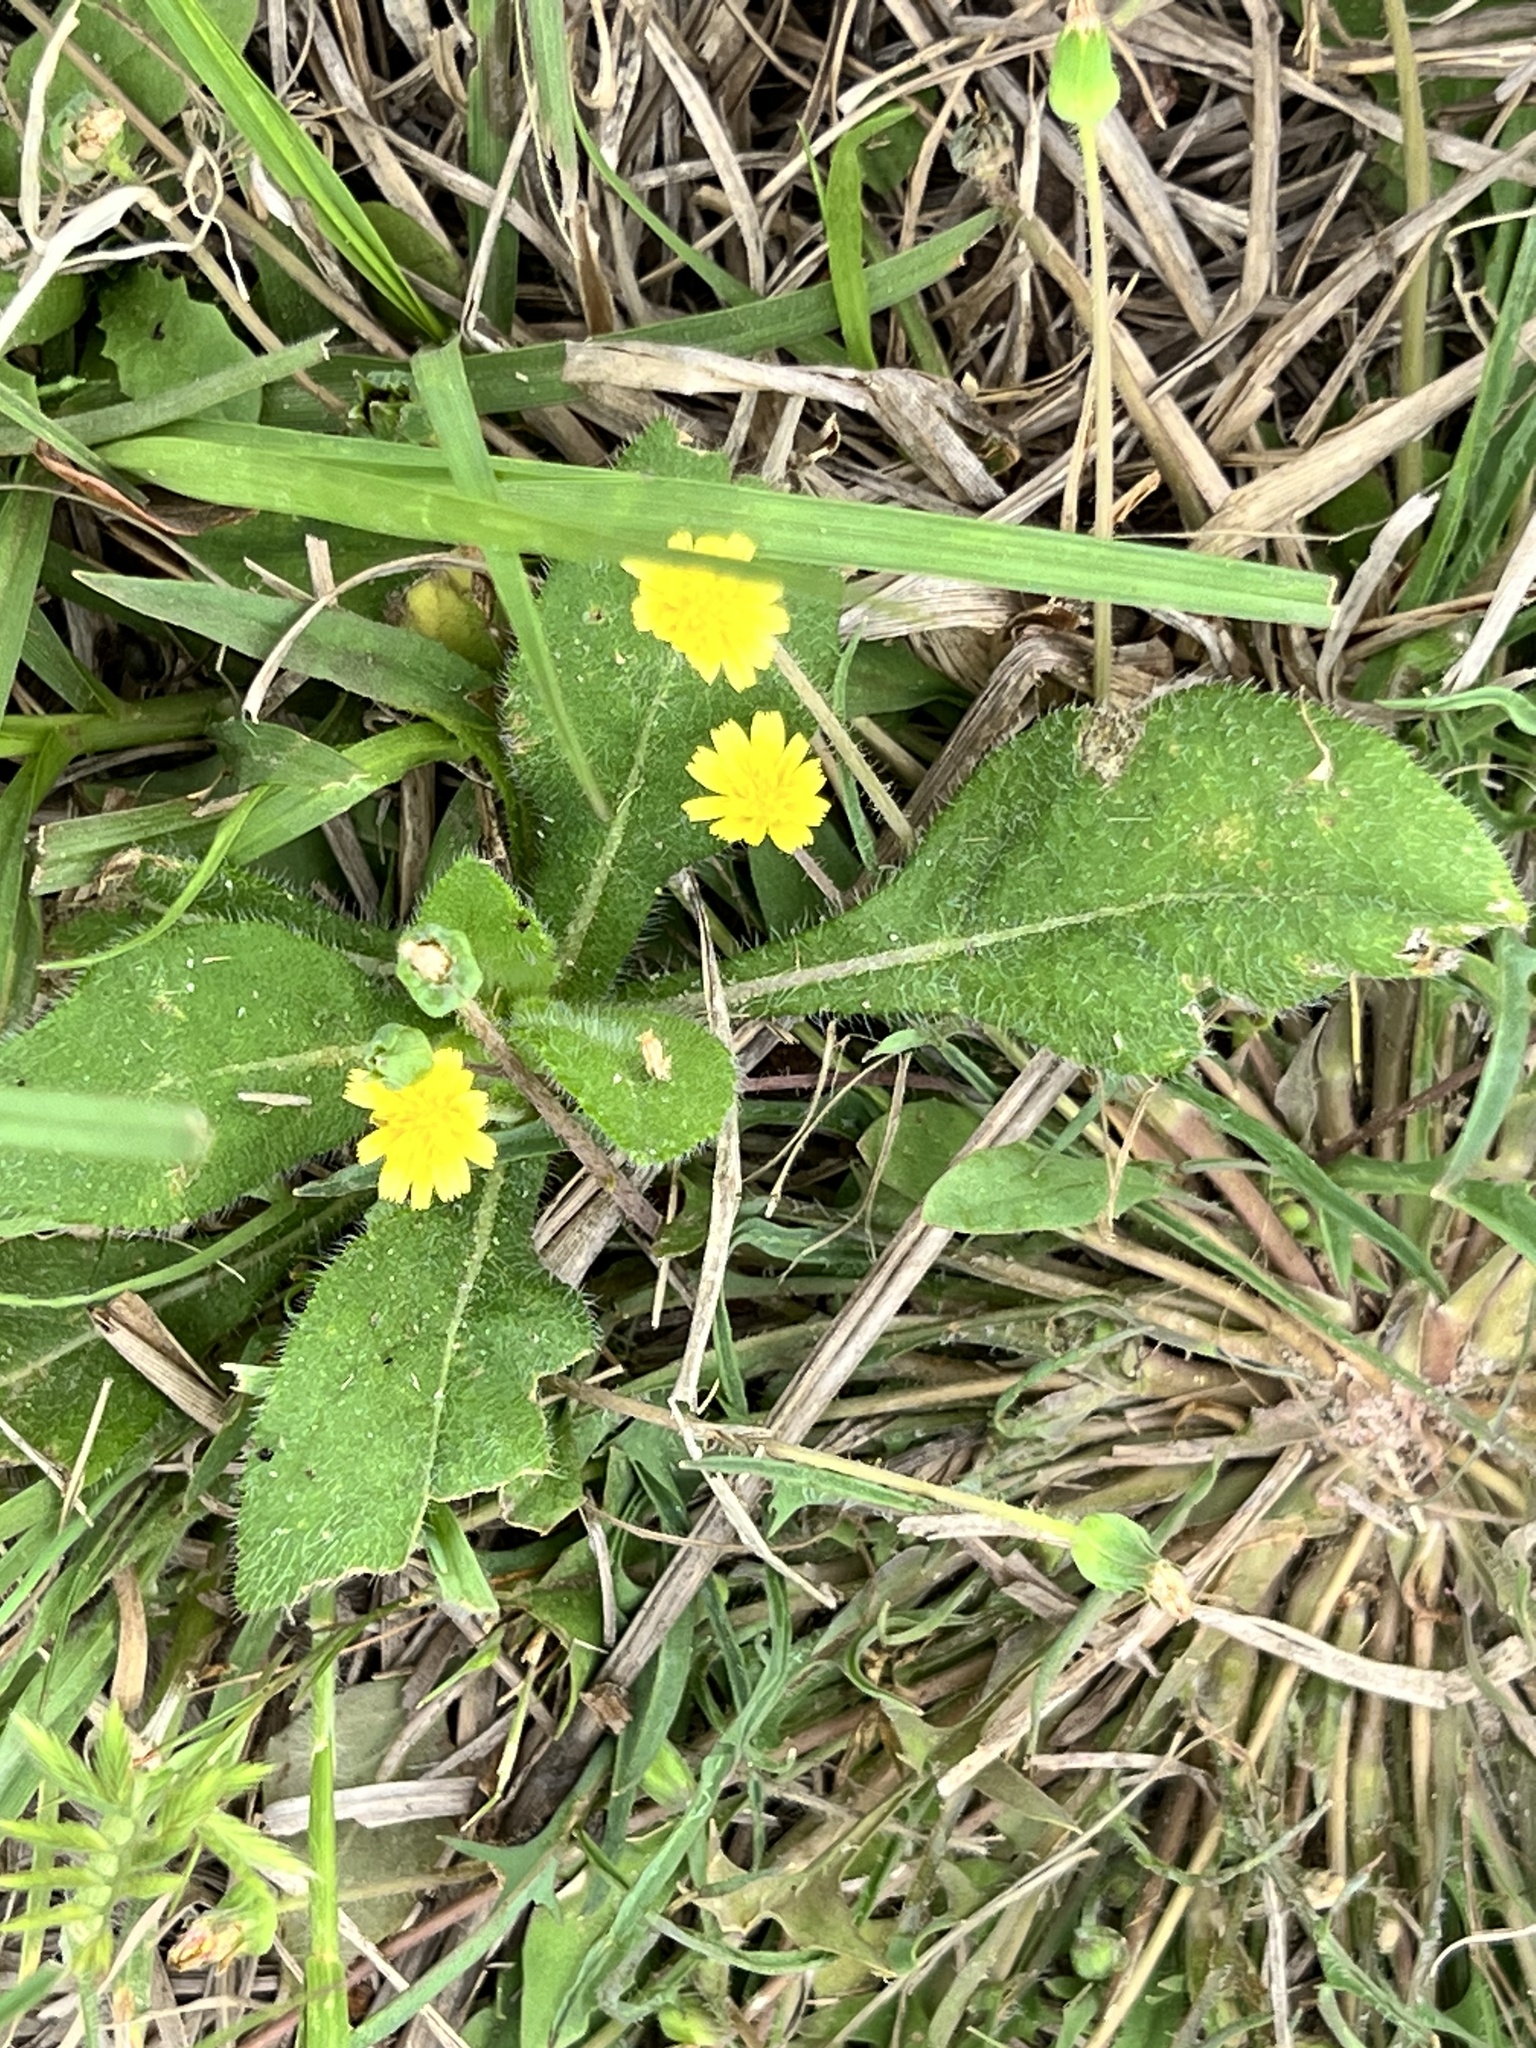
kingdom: Plantae
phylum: Tracheophyta
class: Magnoliopsida
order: Asterales
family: Asteraceae
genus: Krigia
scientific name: Krigia cespitosa
